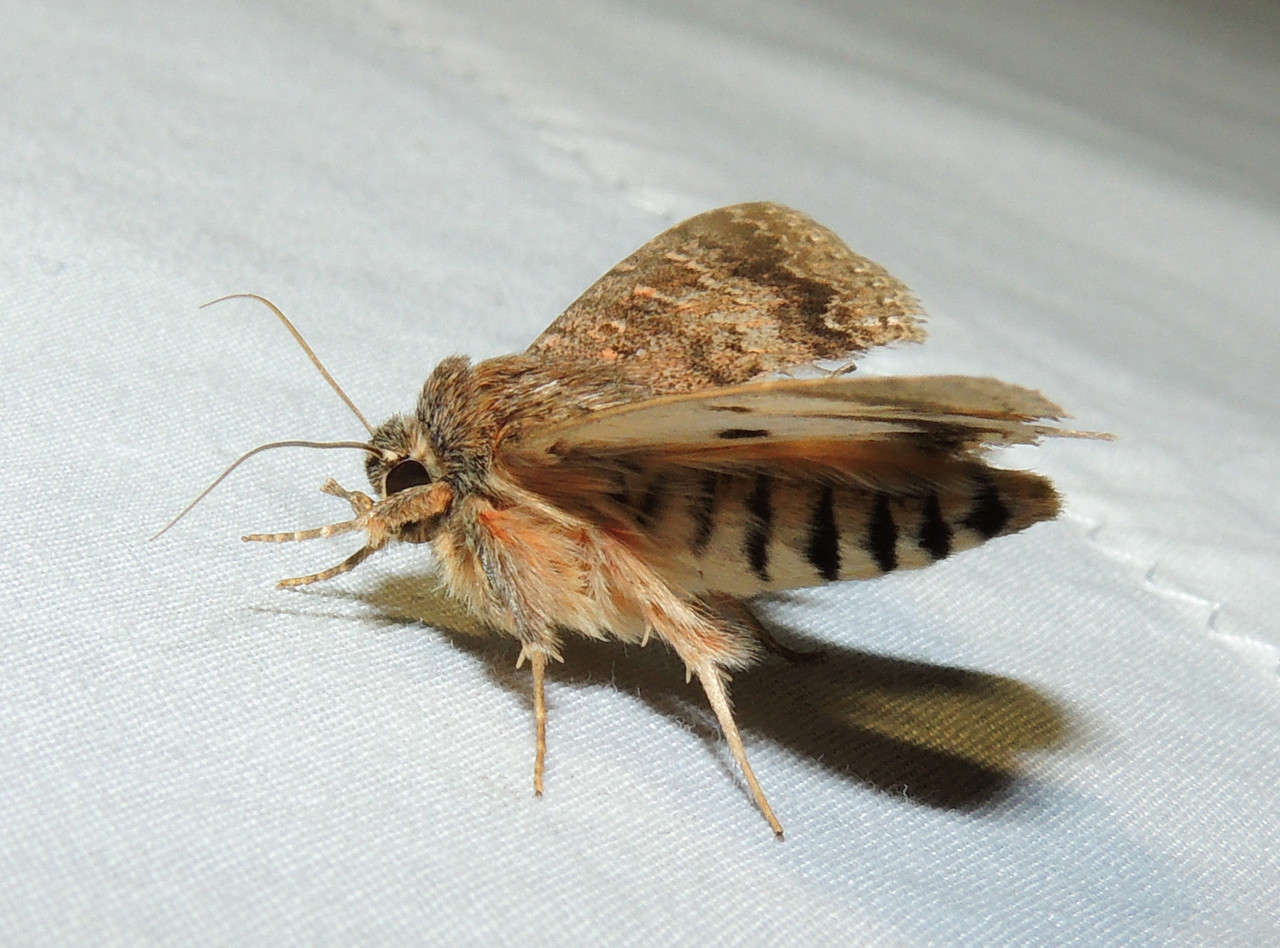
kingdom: Animalia
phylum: Arthropoda
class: Insecta
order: Lepidoptera
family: Erebidae
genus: Eudesmeola
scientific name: Eudesmeola lawsoni
